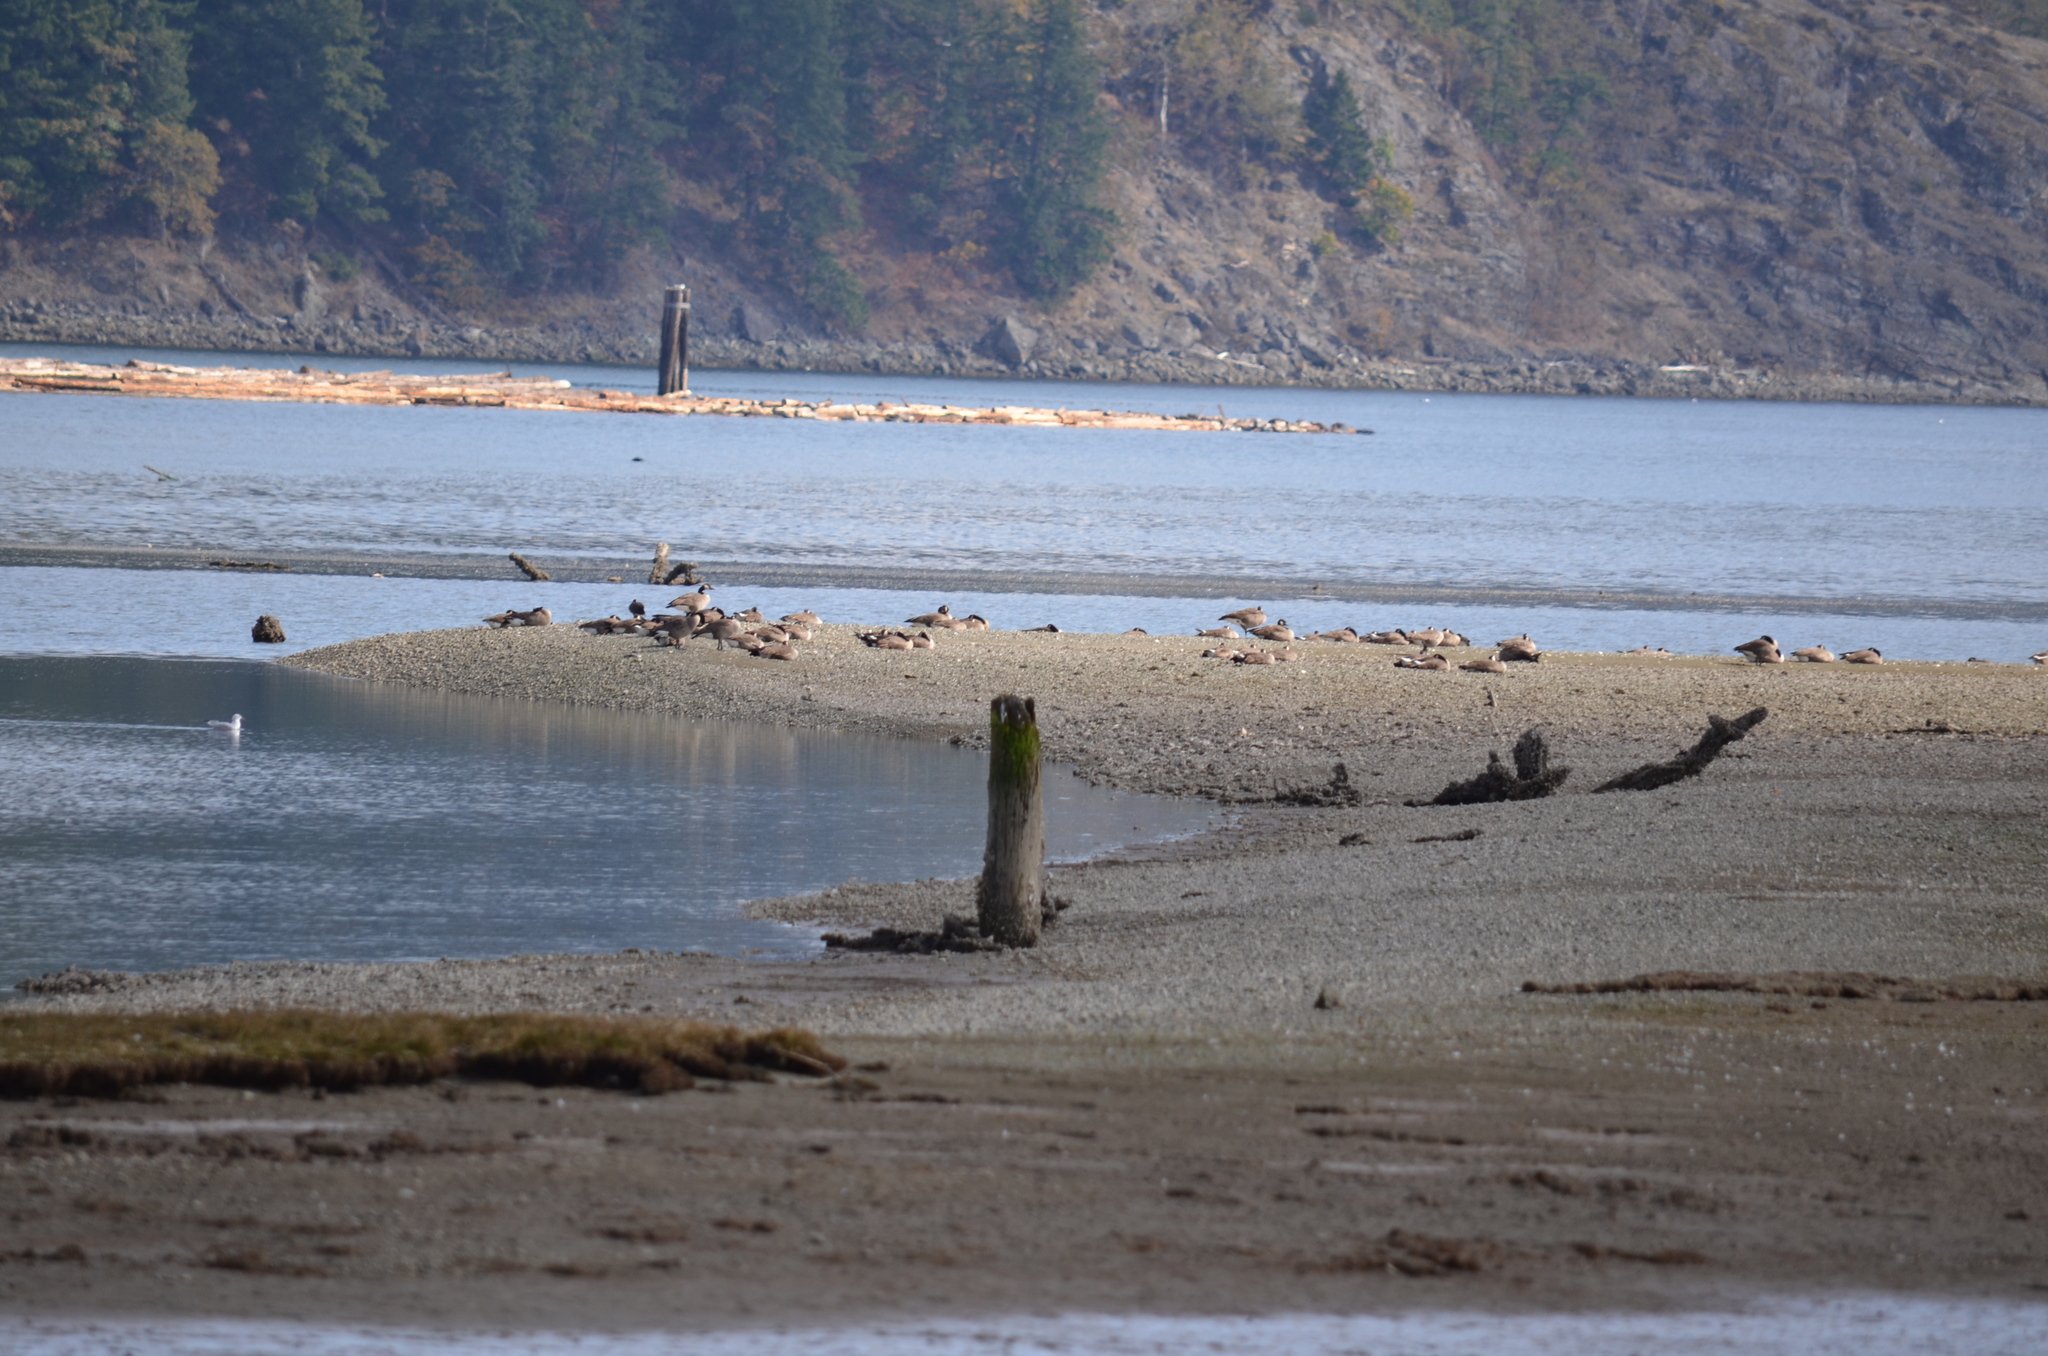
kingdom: Animalia
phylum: Chordata
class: Aves
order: Anseriformes
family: Anatidae
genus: Branta
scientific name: Branta canadensis
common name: Canada goose
